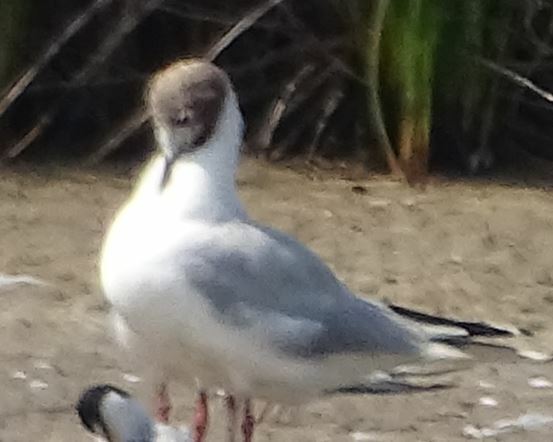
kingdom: Animalia
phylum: Chordata
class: Aves
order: Charadriiformes
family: Laridae
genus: Chroicocephalus
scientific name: Chroicocephalus ridibundus
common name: Black-headed gull
